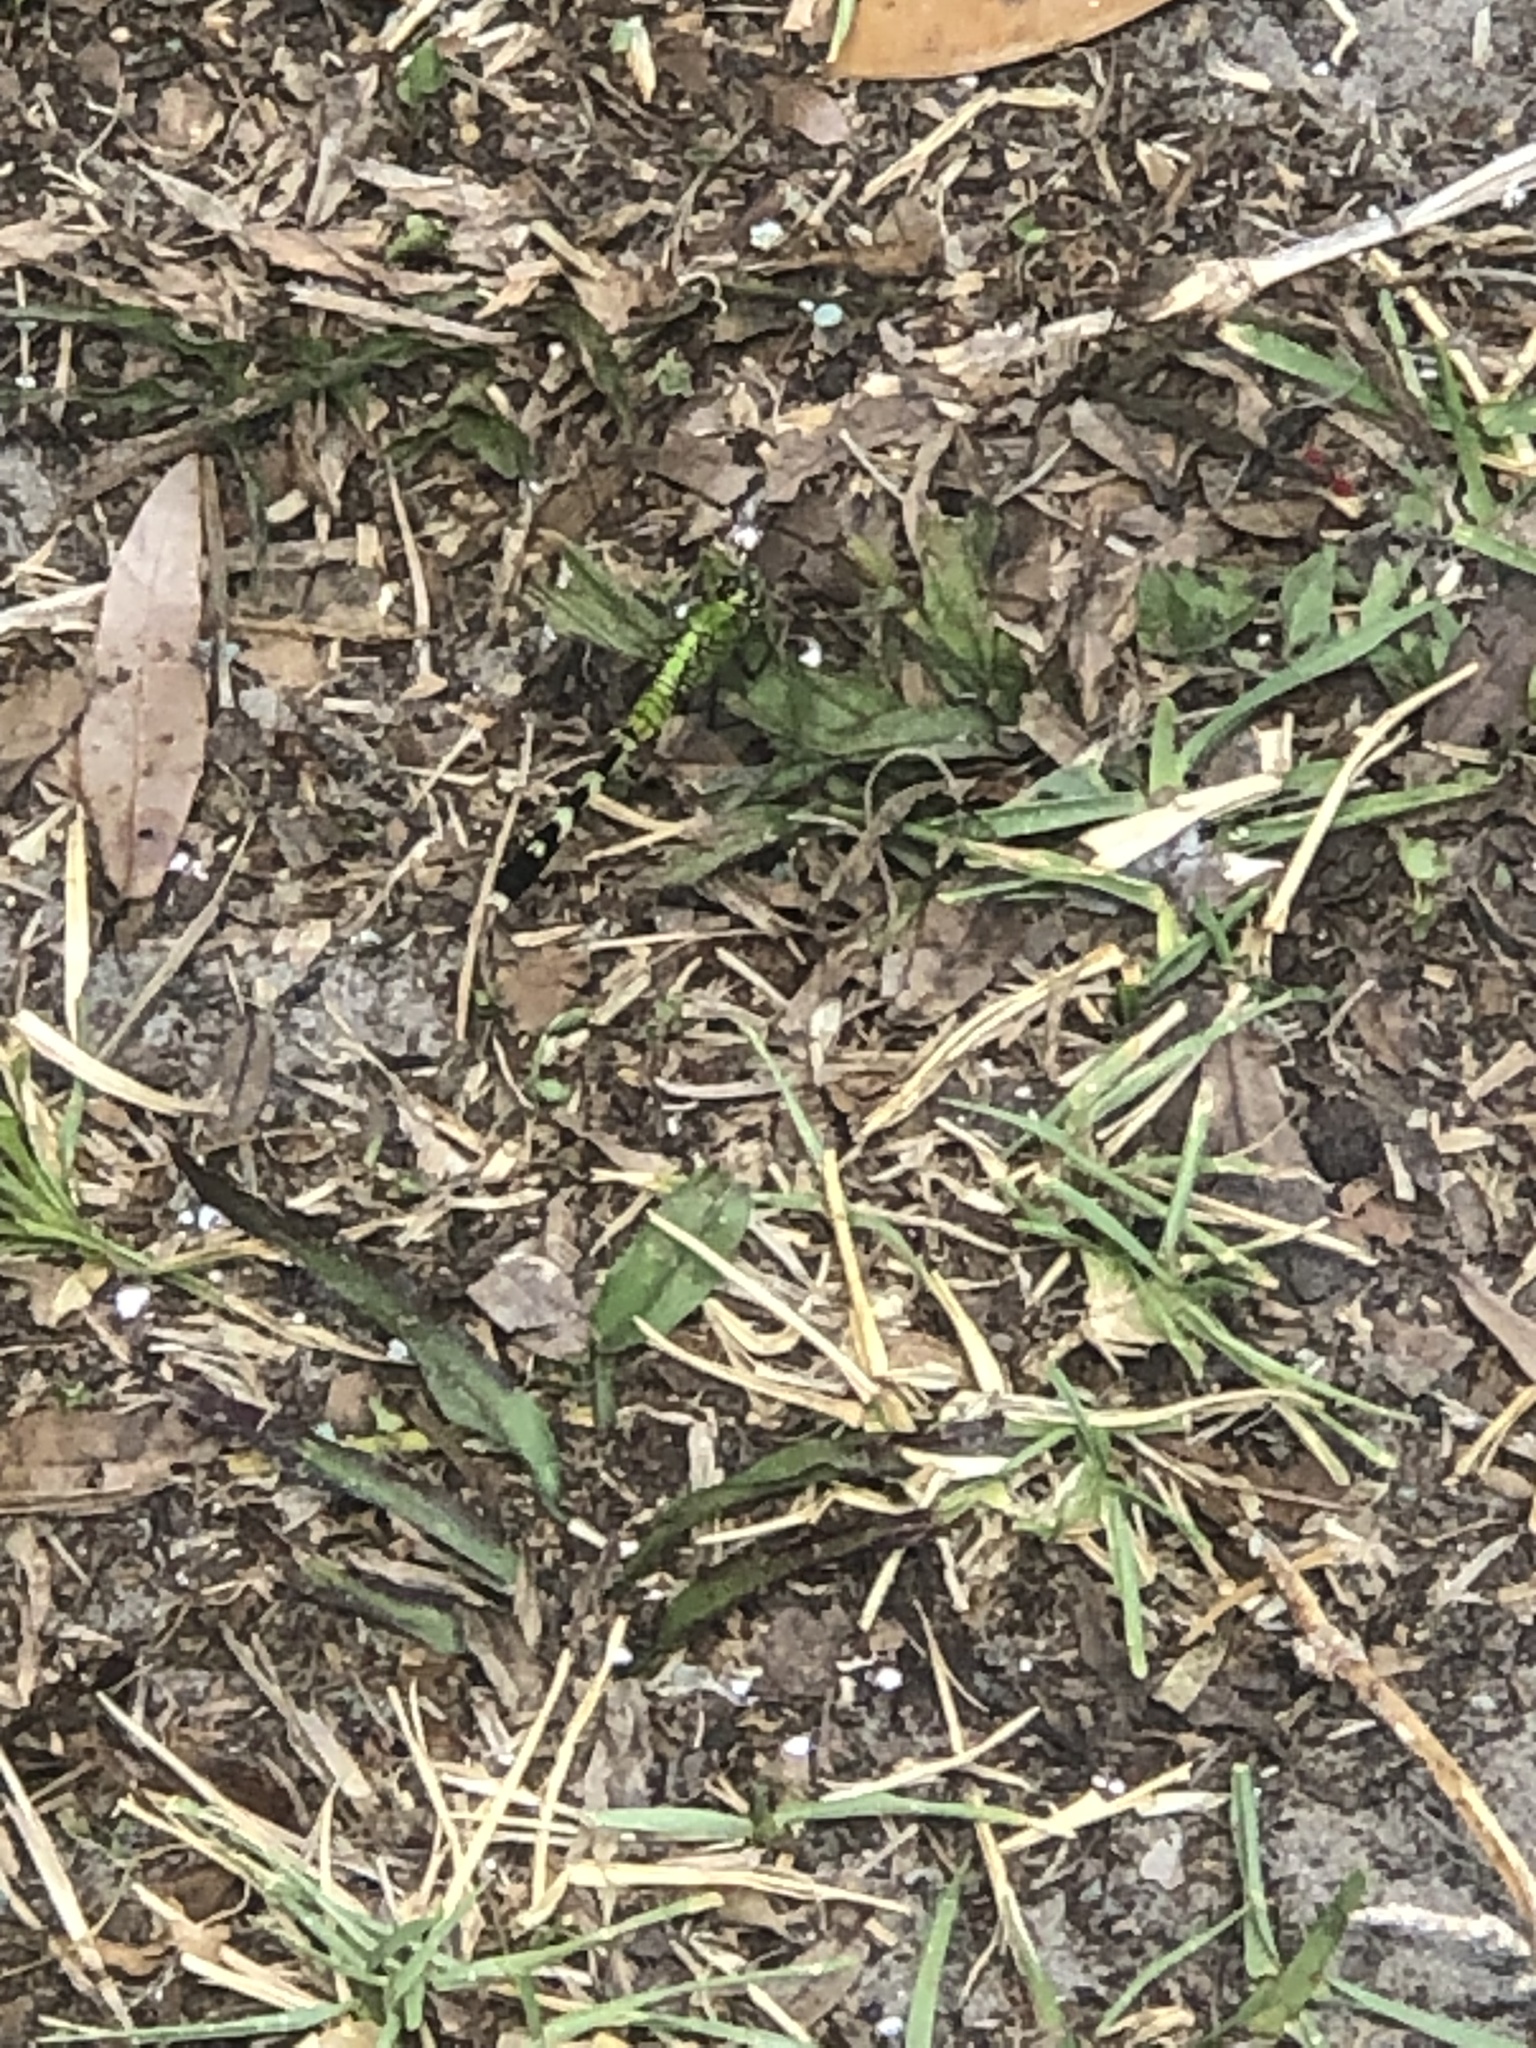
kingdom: Animalia
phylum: Arthropoda
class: Insecta
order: Odonata
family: Libellulidae
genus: Erythemis
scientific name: Erythemis simplicicollis
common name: Eastern pondhawk
